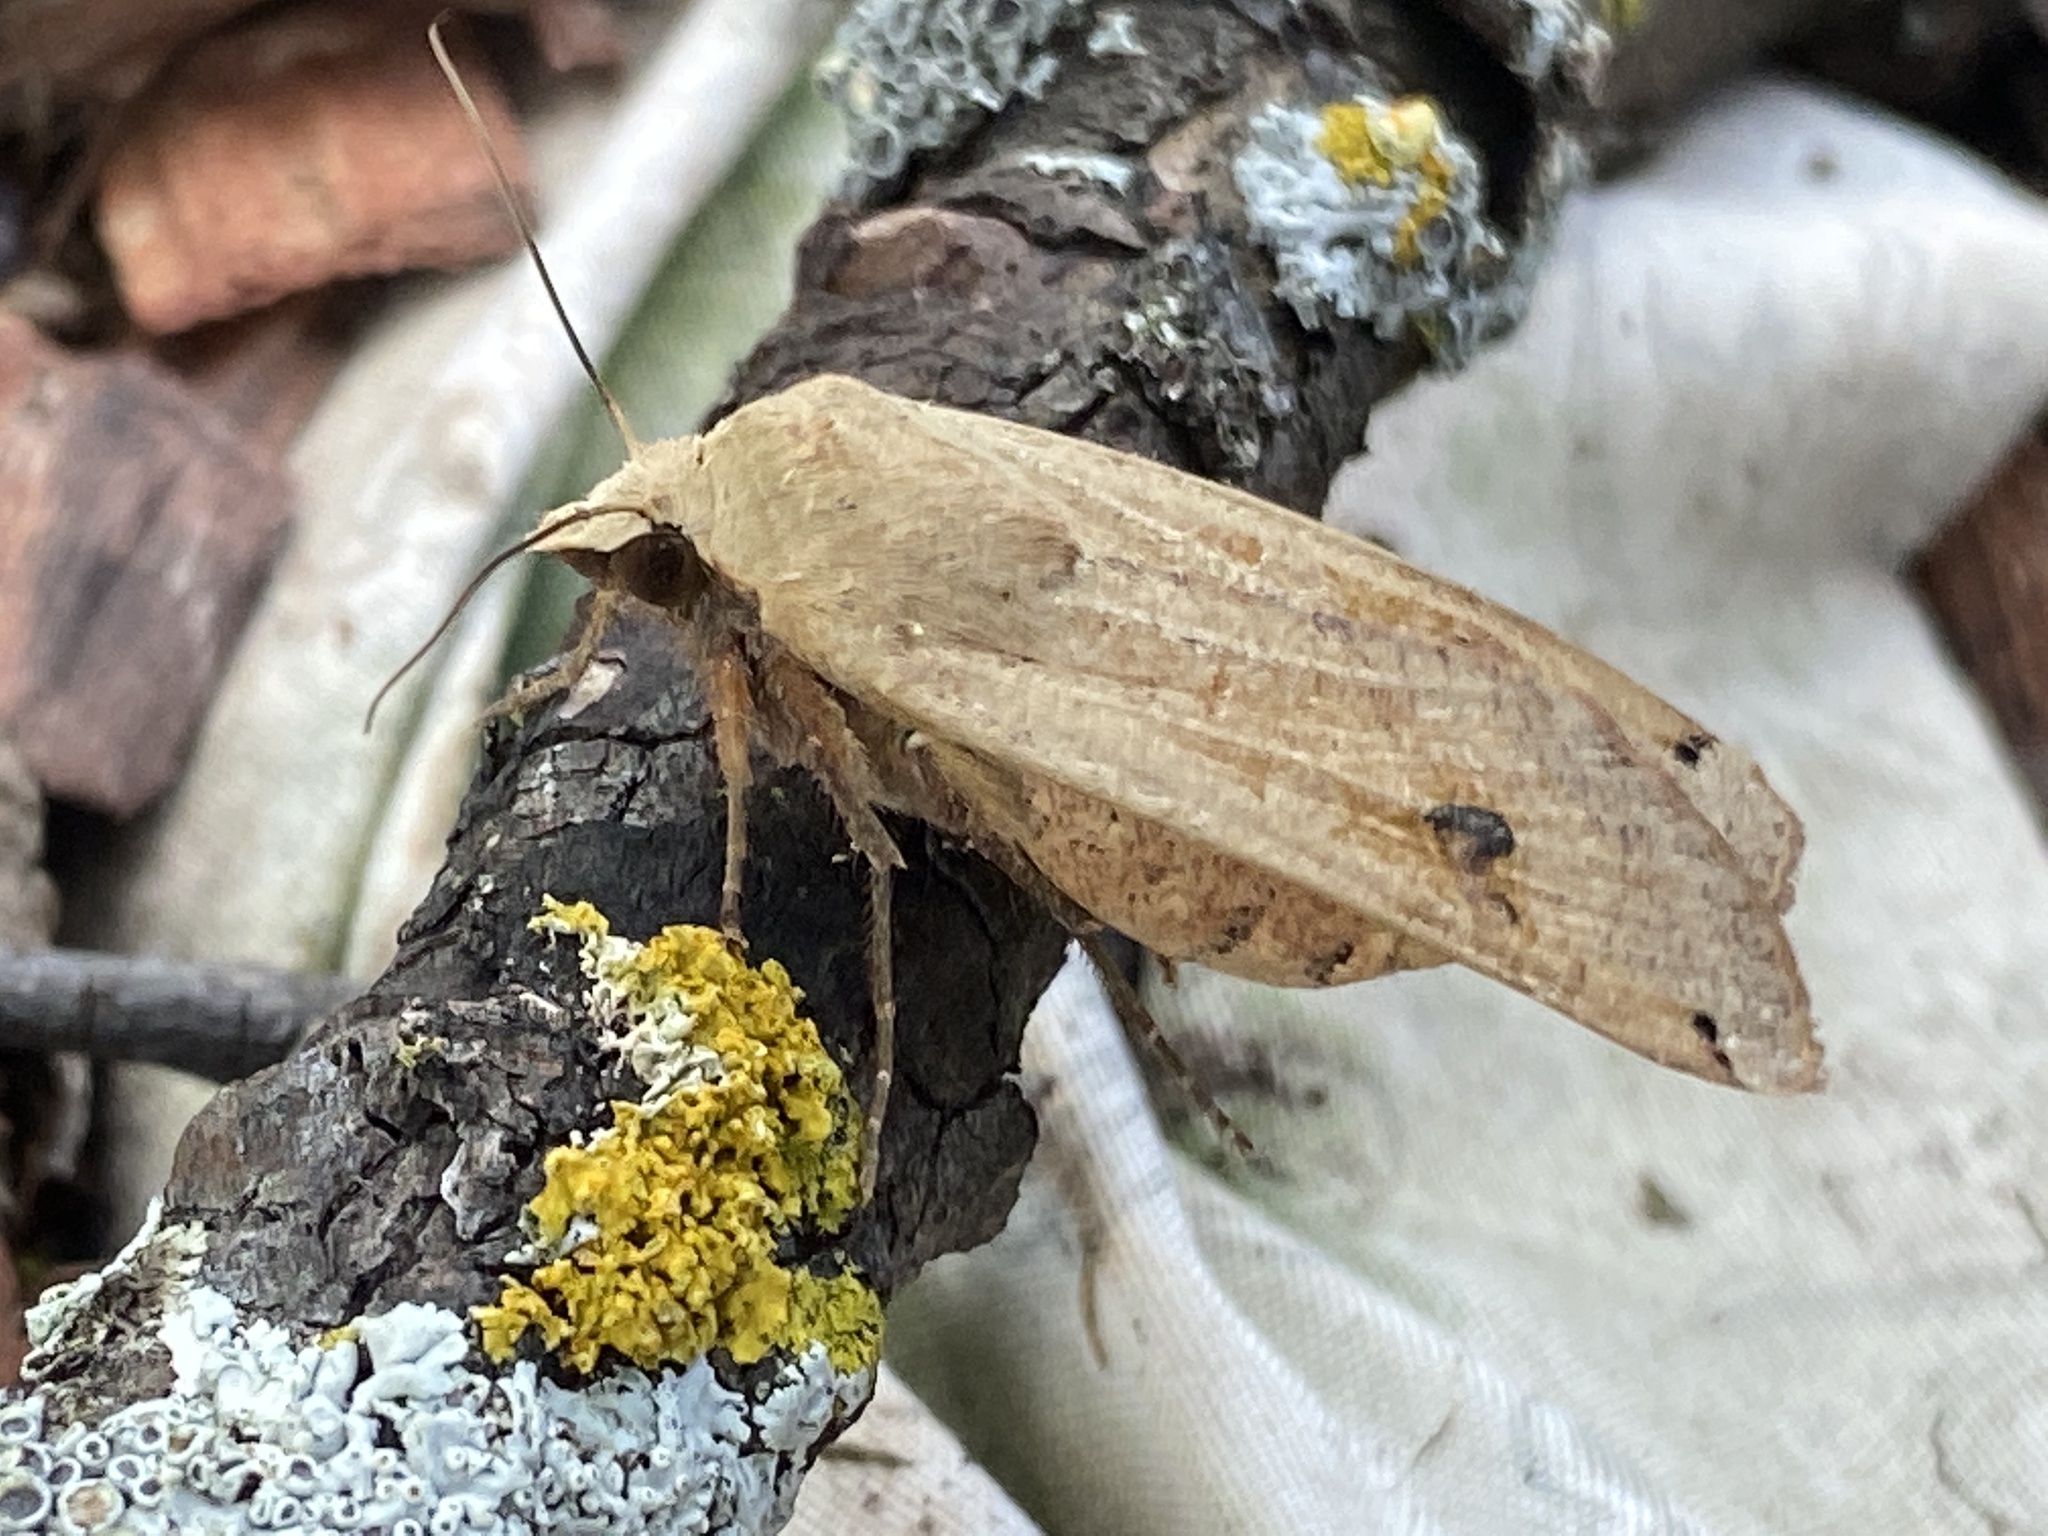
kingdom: Animalia
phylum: Arthropoda
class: Insecta
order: Lepidoptera
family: Noctuidae
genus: Noctua
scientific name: Noctua pronuba
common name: Large yellow underwing
